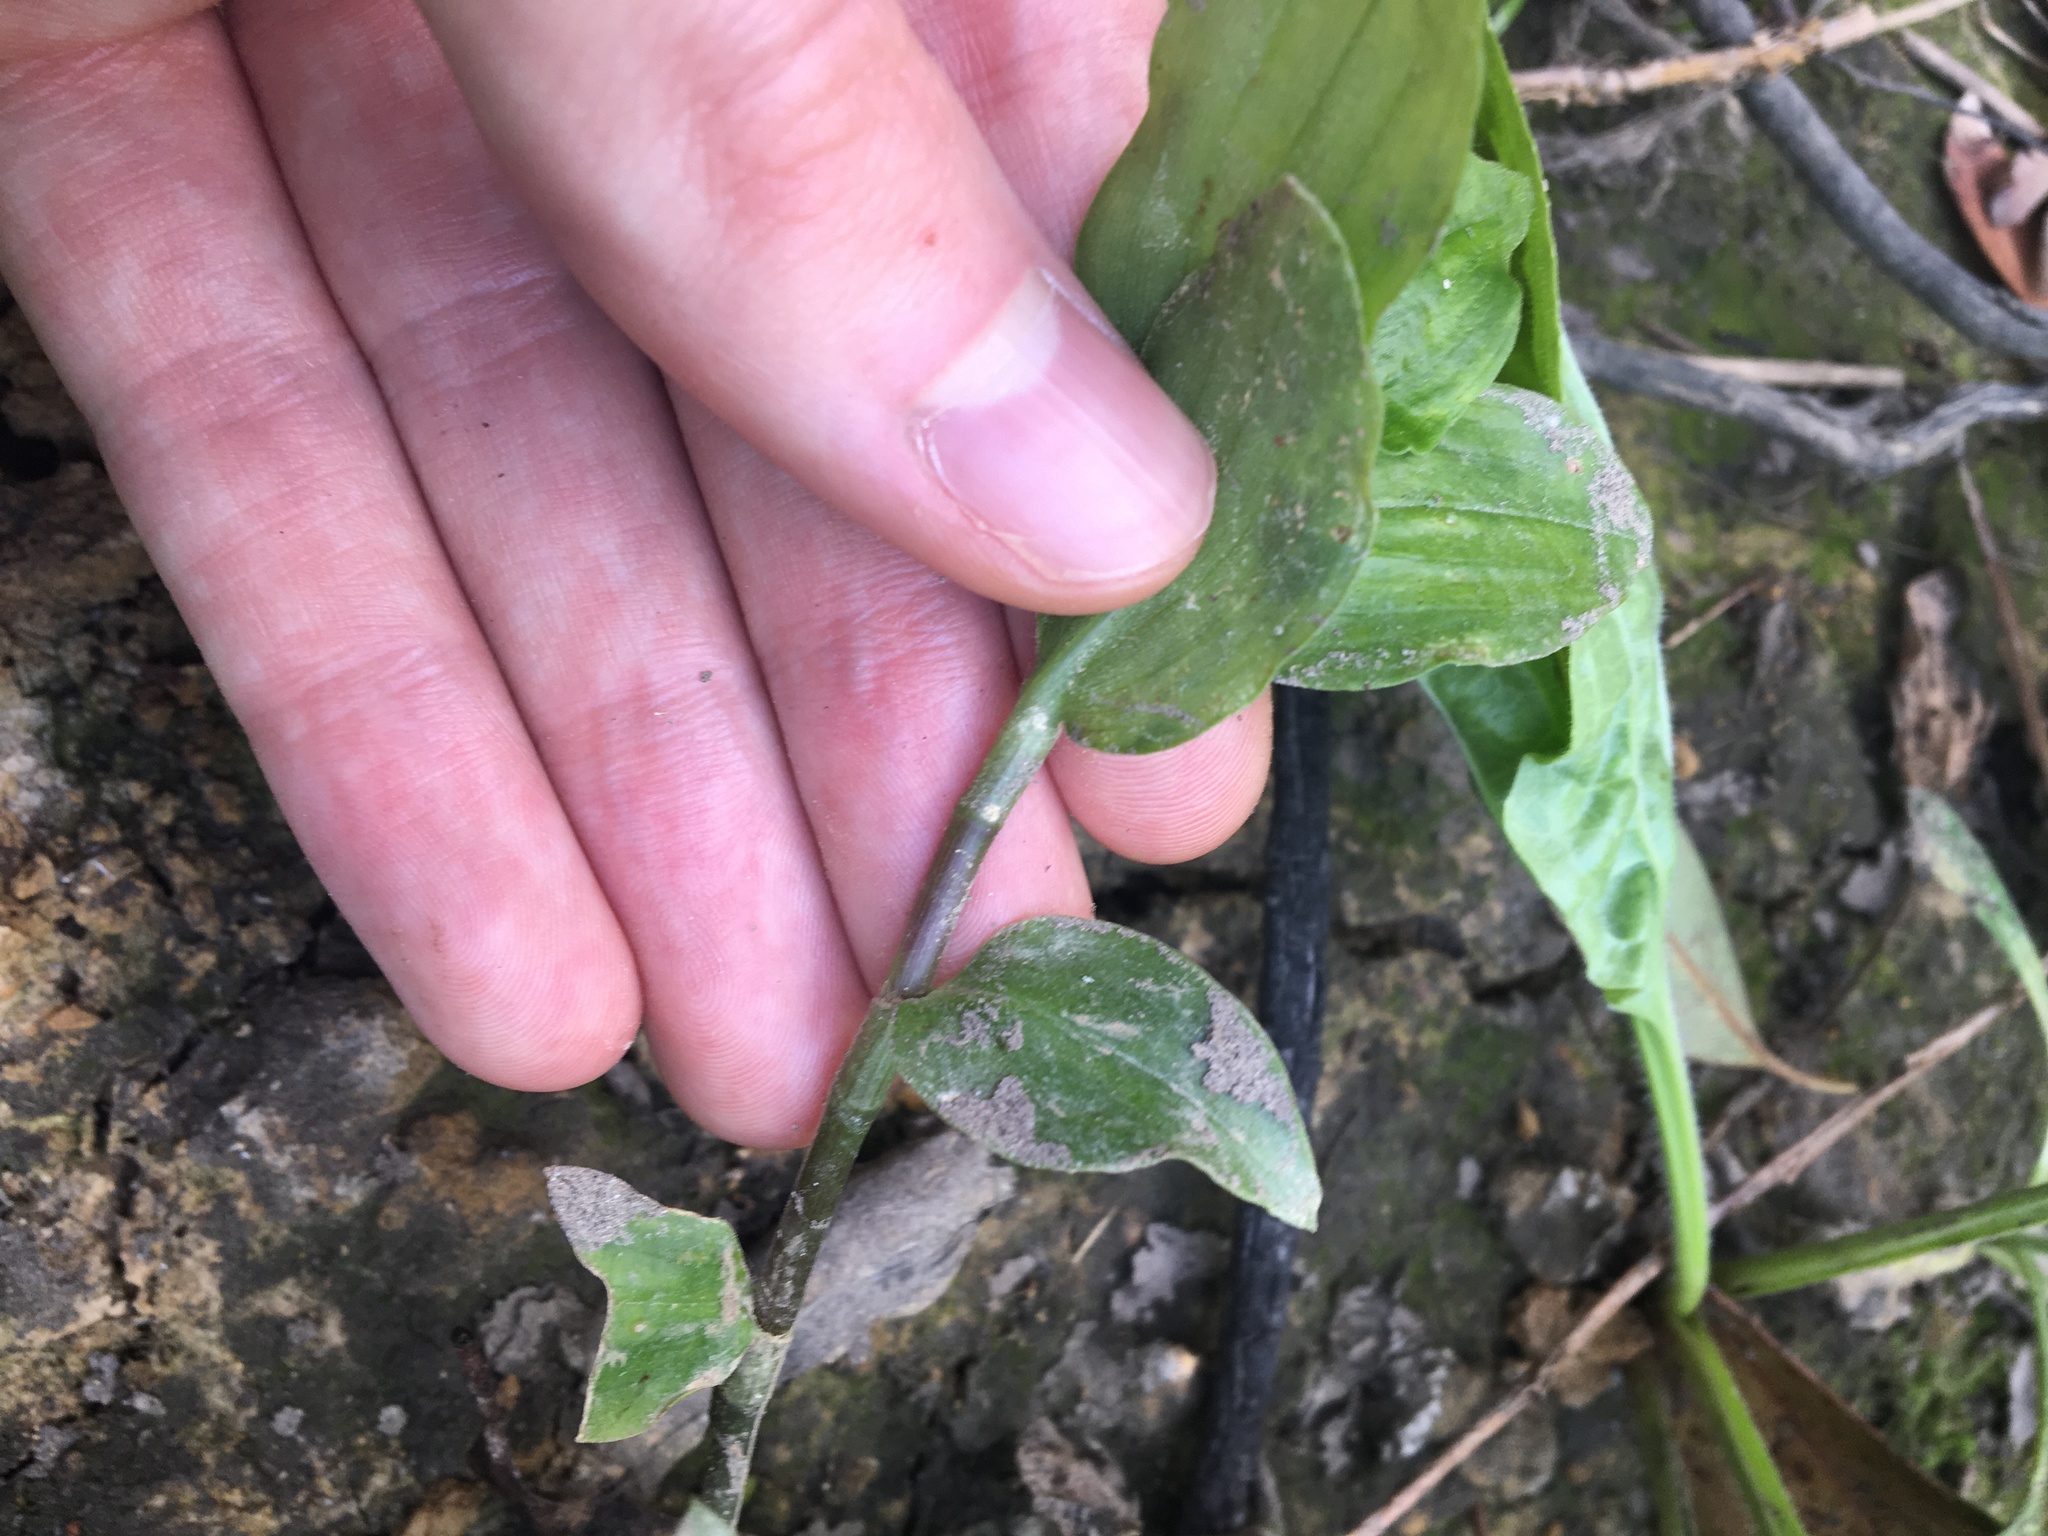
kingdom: Plantae
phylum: Tracheophyta
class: Liliopsida
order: Commelinales
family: Commelinaceae
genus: Tradescantia
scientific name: Tradescantia fluminensis
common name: Wandering-jew
